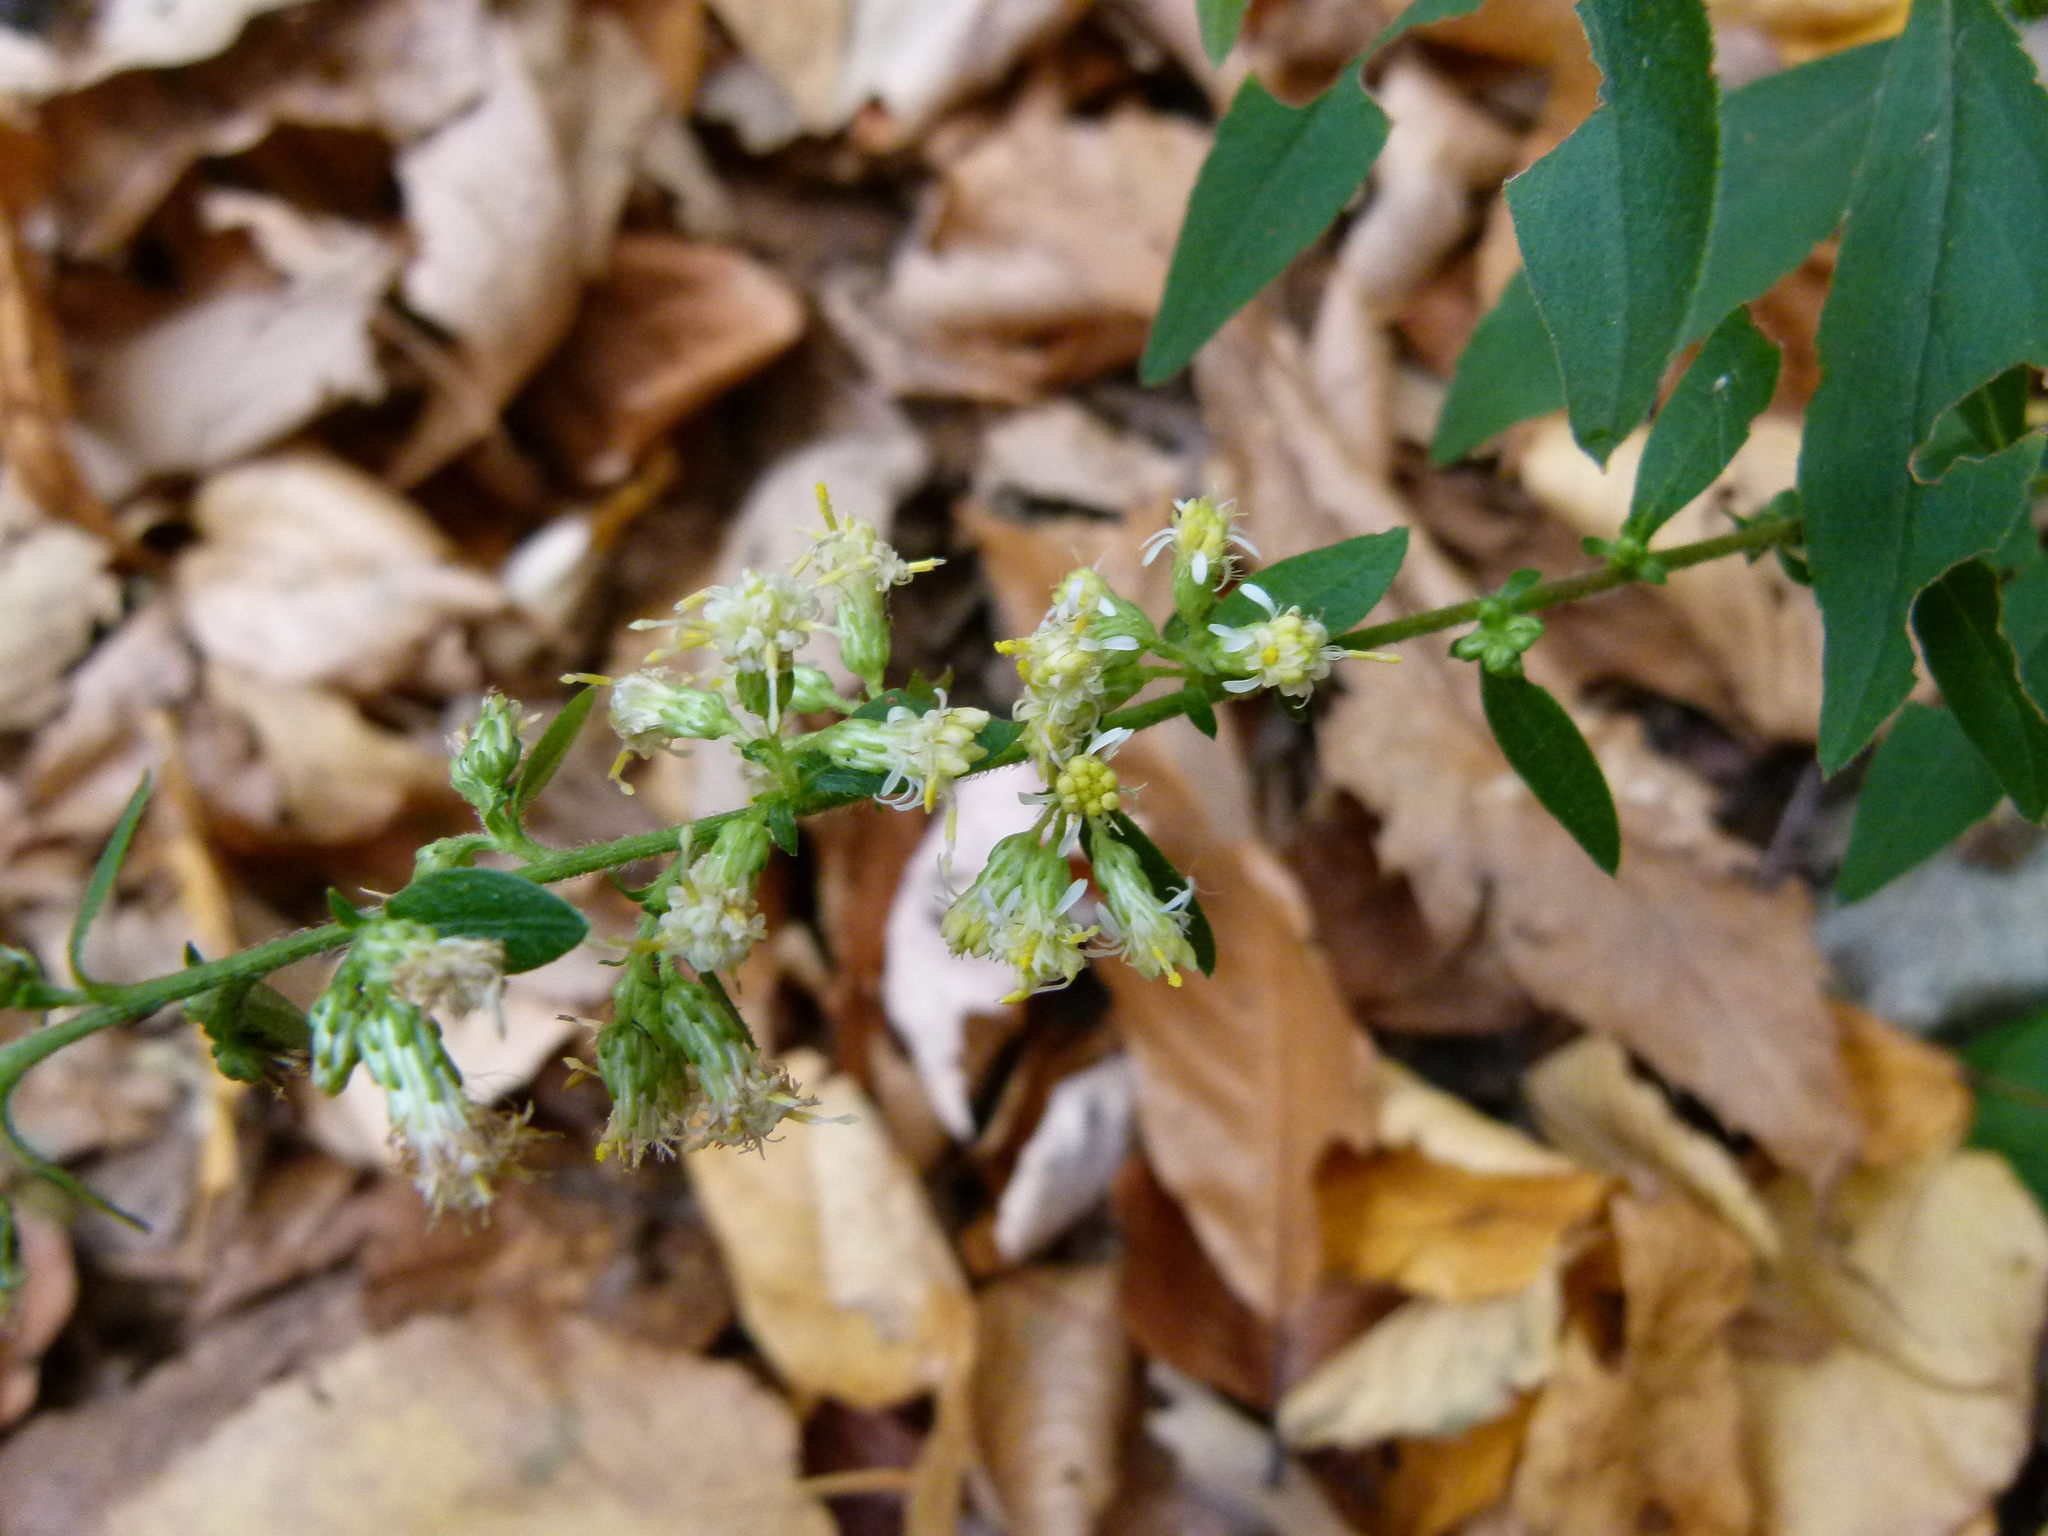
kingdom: Plantae
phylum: Tracheophyta
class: Magnoliopsida
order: Asterales
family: Asteraceae
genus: Solidago
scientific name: Solidago bicolor
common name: Silverrod
